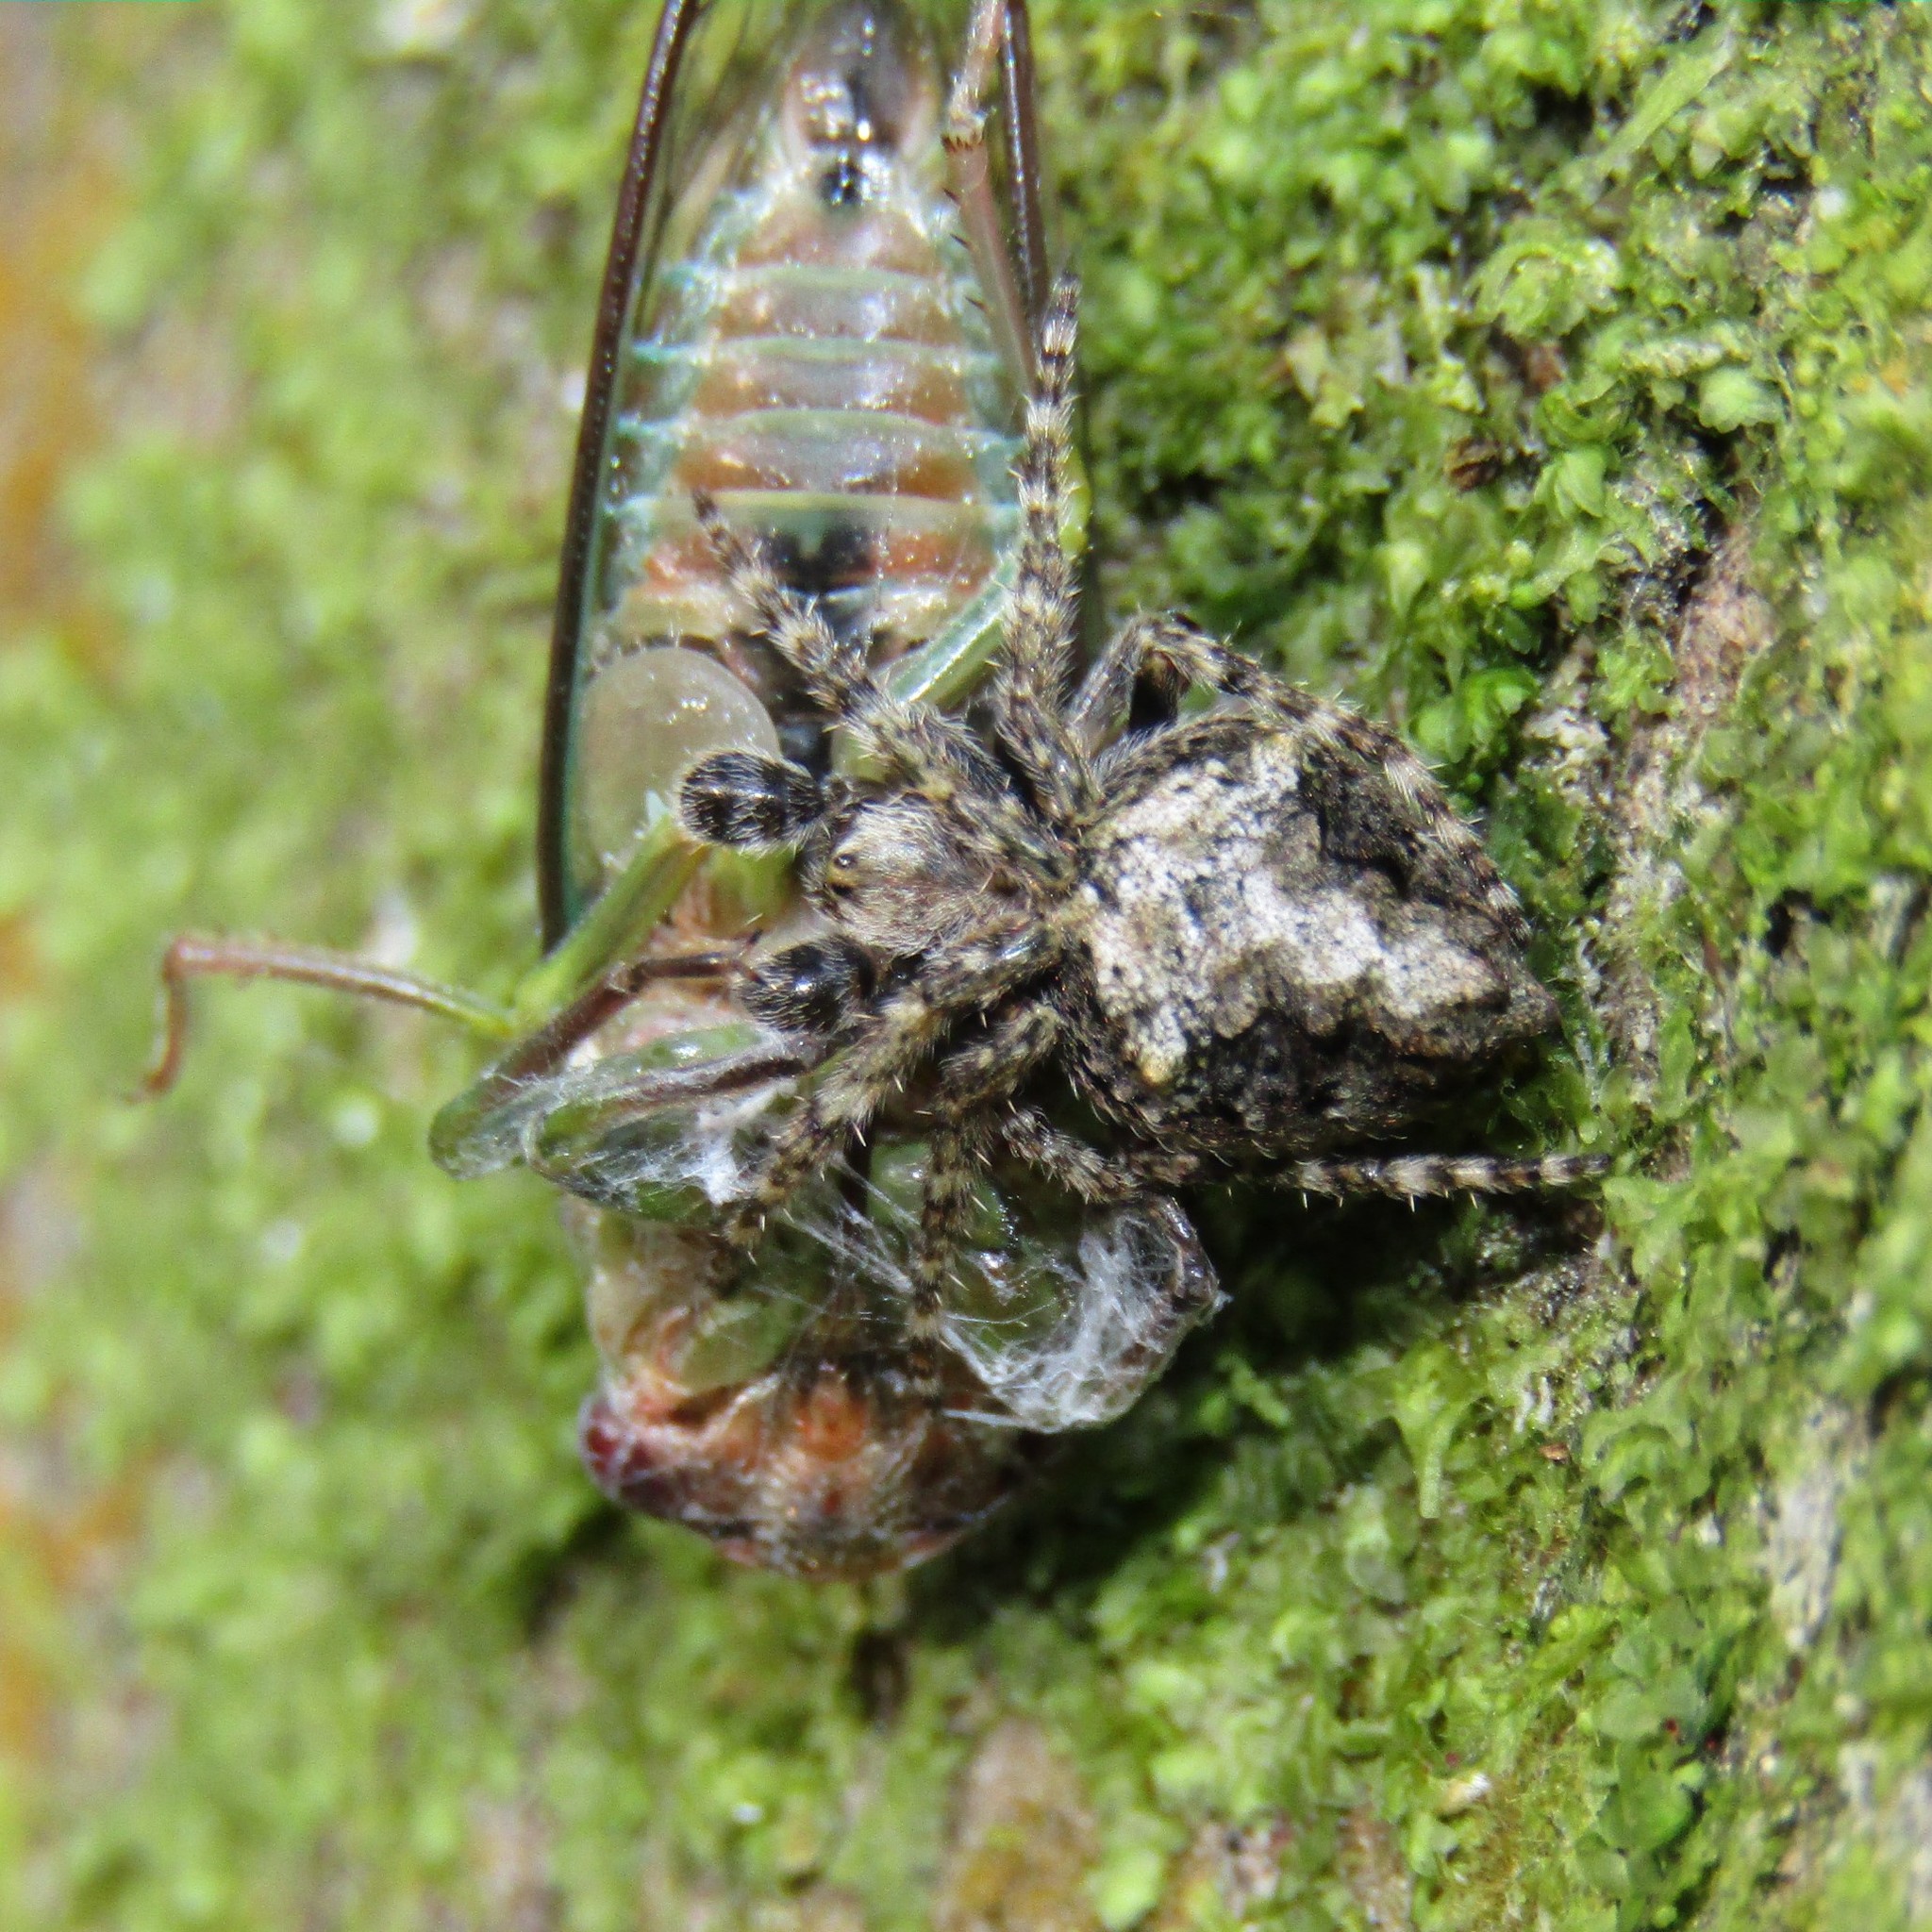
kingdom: Animalia
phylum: Arthropoda
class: Arachnida
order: Araneae
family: Araneidae
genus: Eriophora
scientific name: Eriophora pustulosa
